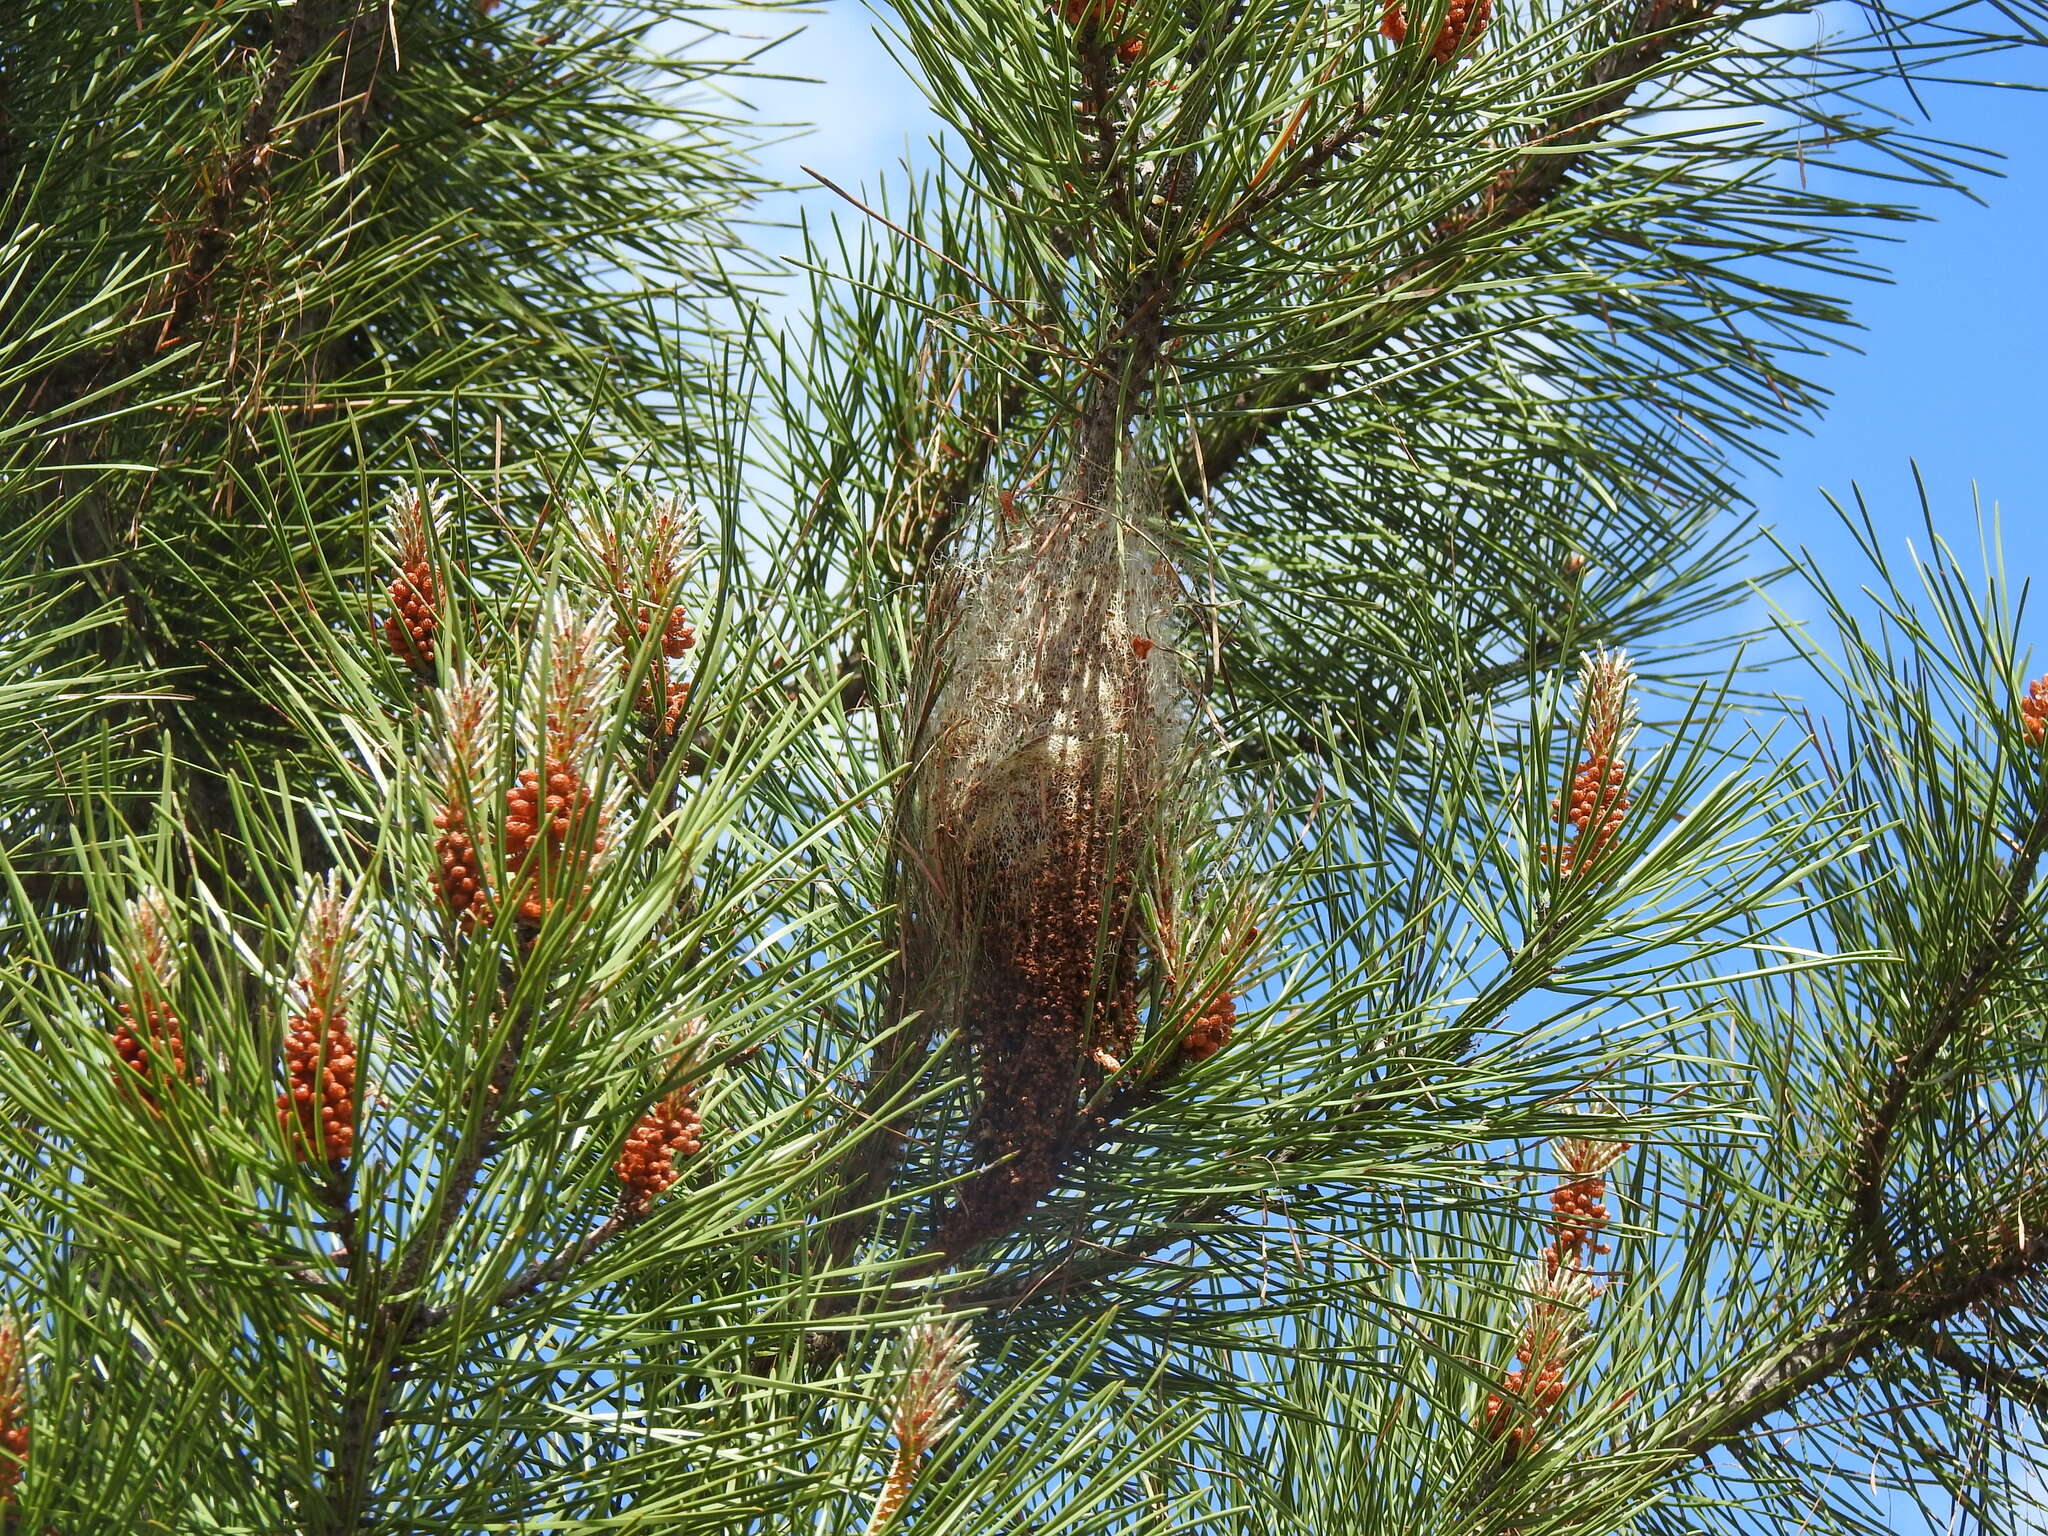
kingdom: Animalia
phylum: Arthropoda
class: Insecta
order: Lepidoptera
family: Notodontidae
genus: Thaumetopoea
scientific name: Thaumetopoea pityocampa
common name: Pine processionary
